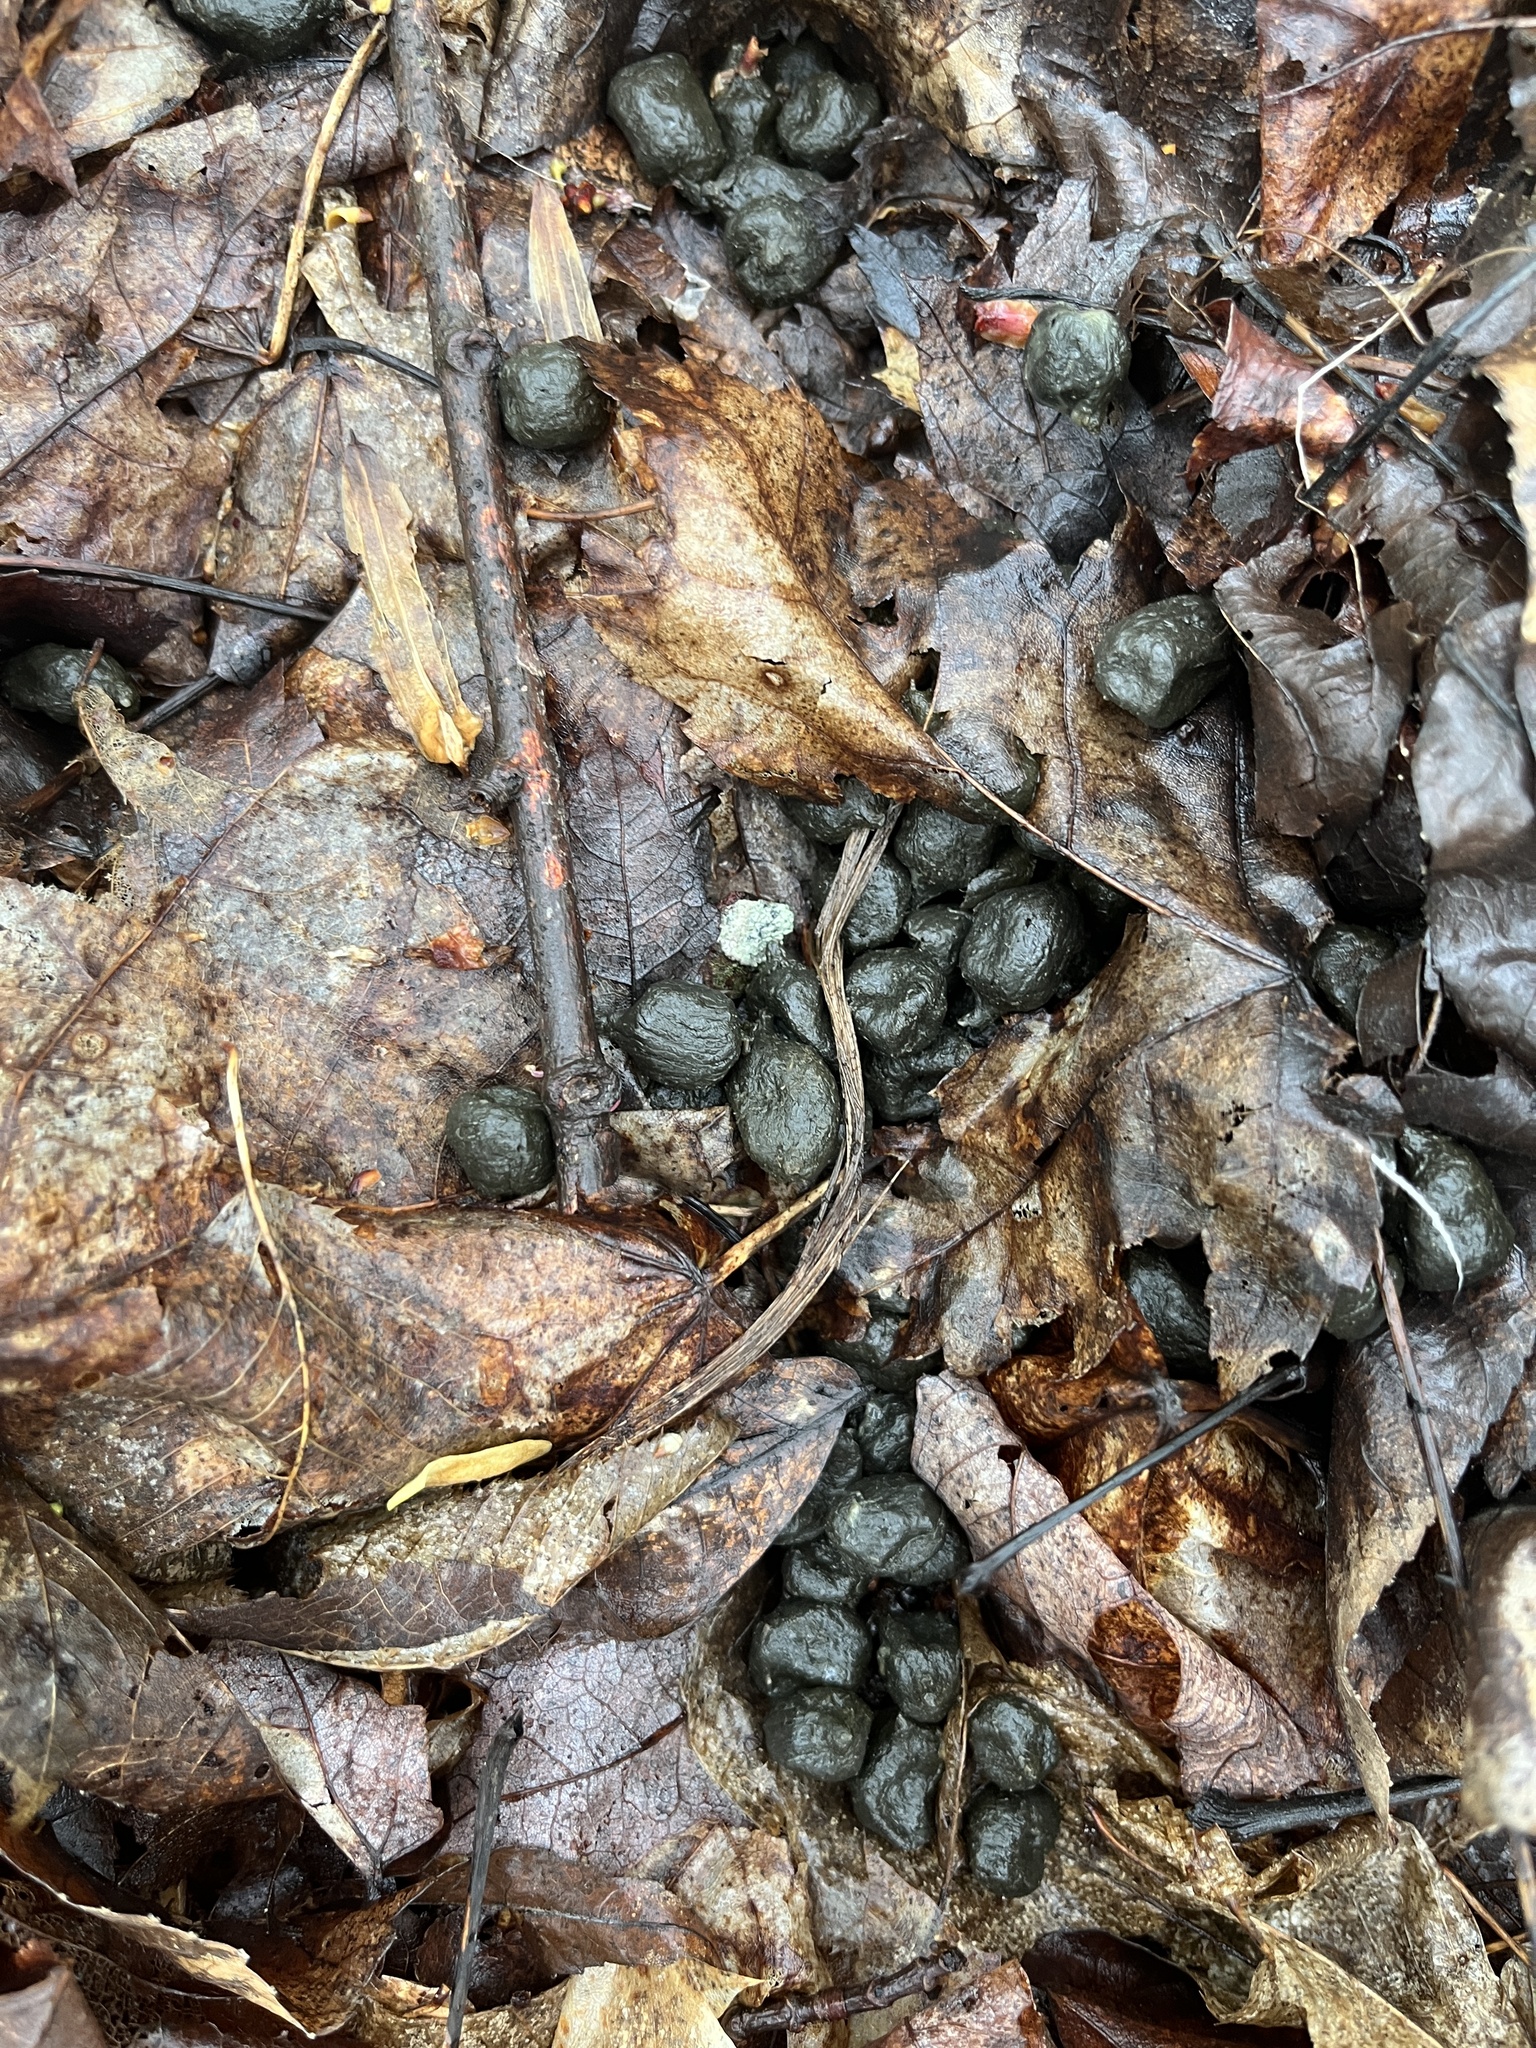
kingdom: Animalia
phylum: Chordata
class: Mammalia
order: Artiodactyla
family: Cervidae
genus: Odocoileus
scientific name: Odocoileus virginianus
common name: White-tailed deer
